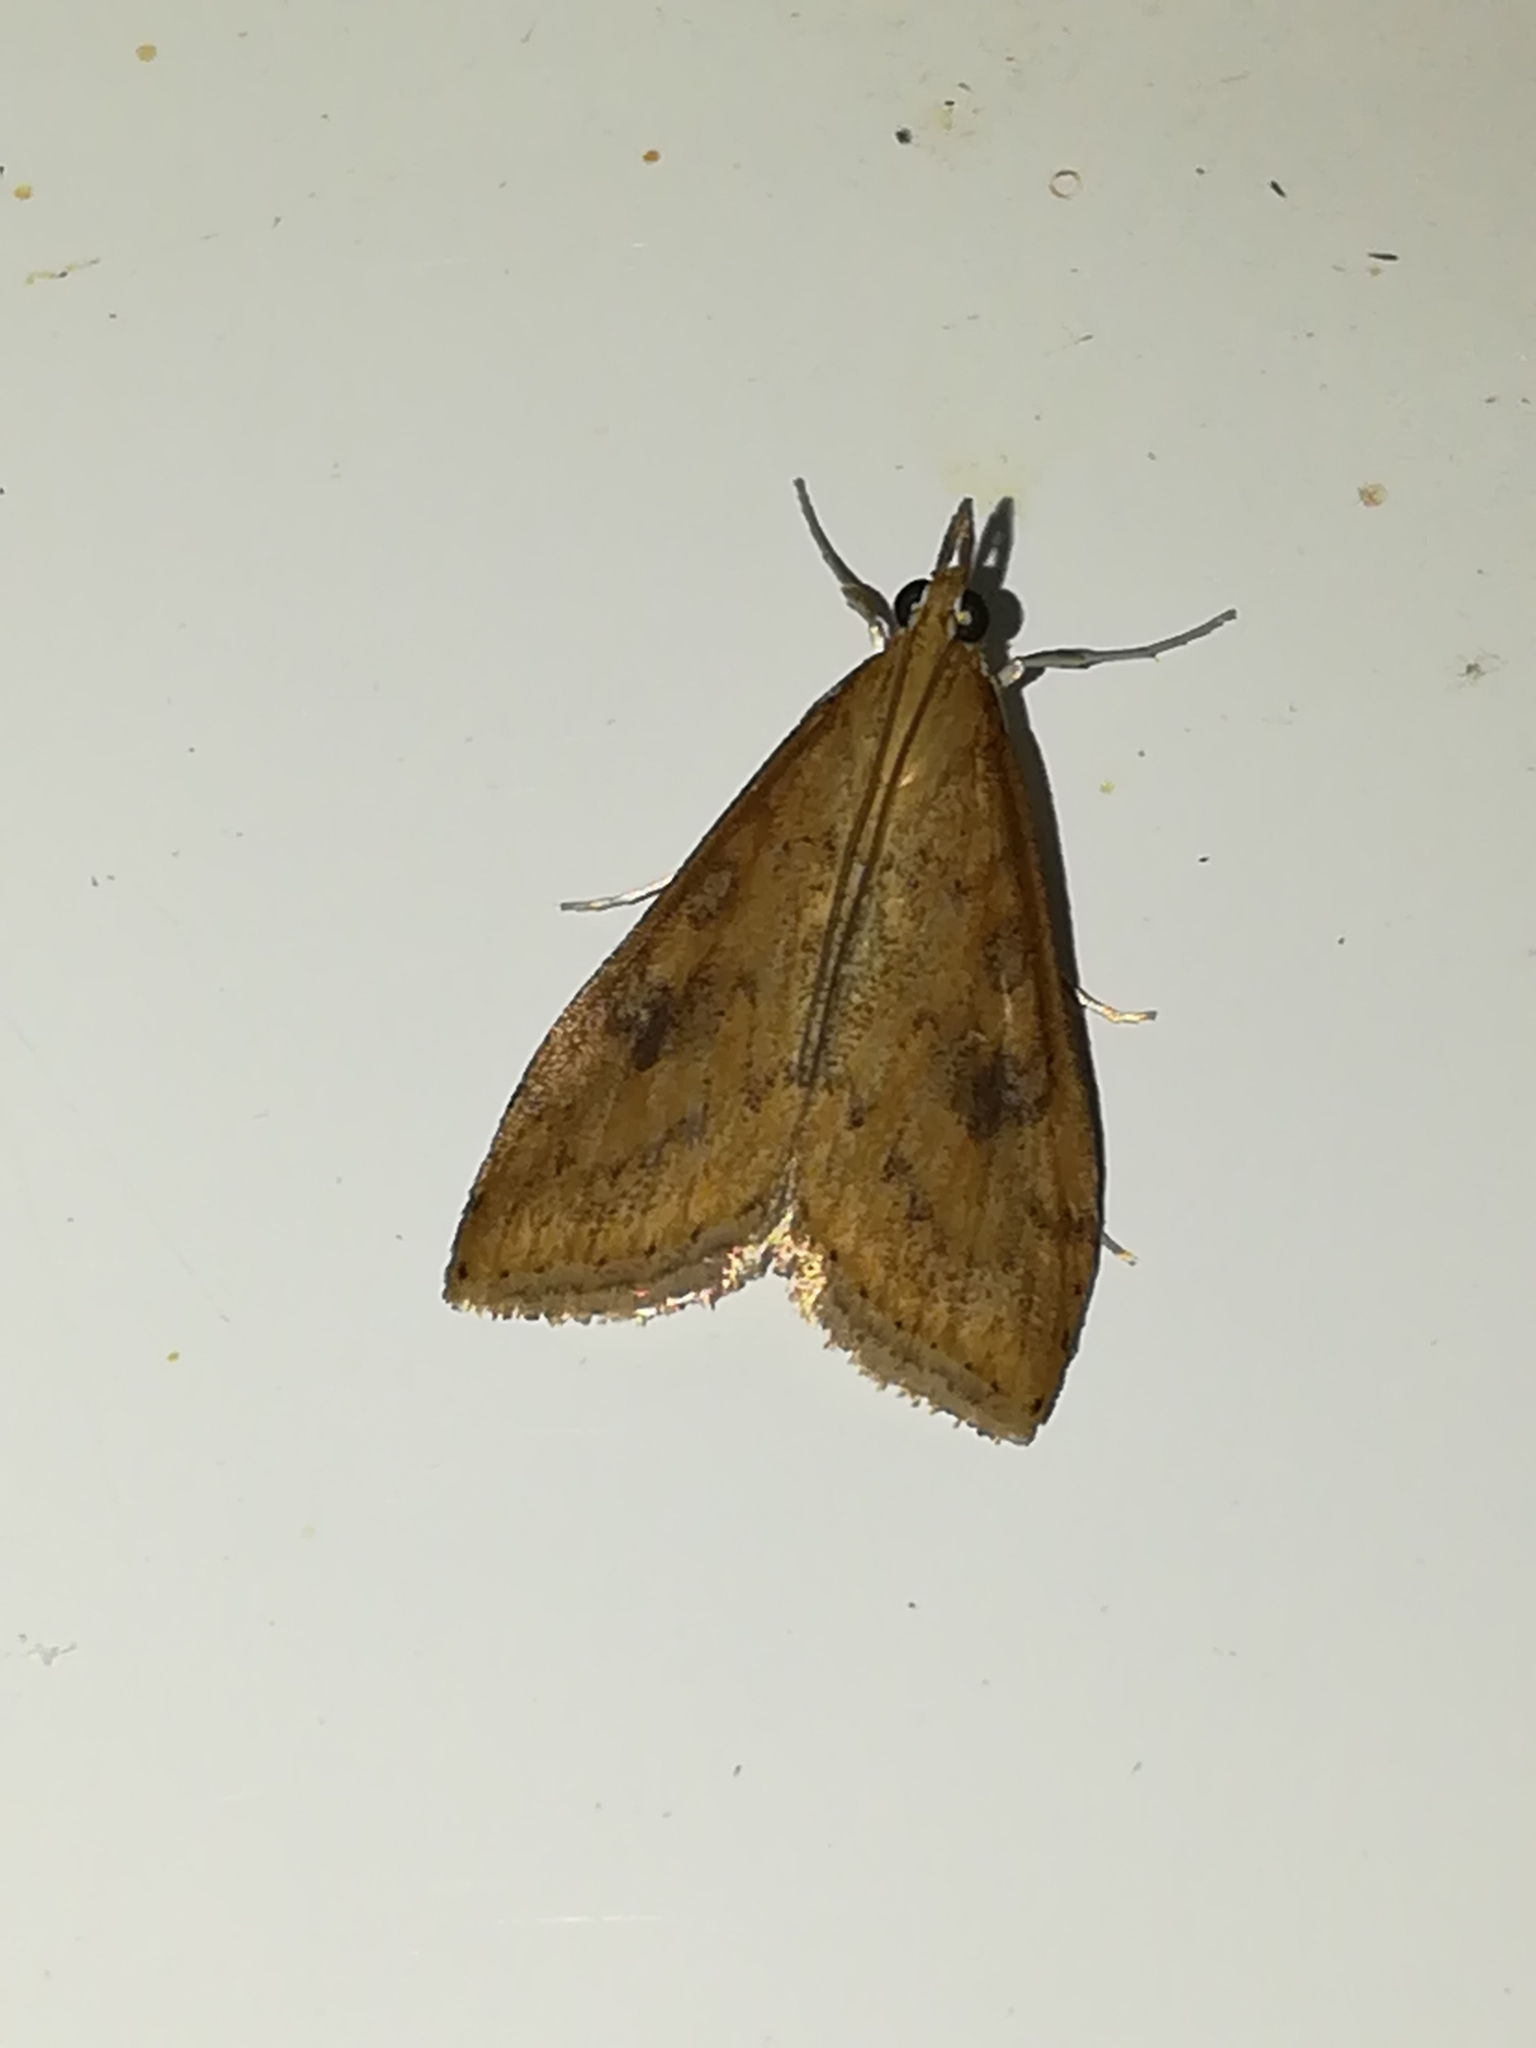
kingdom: Animalia
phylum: Arthropoda
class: Insecta
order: Lepidoptera
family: Crambidae
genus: Udea
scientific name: Udea ferrugalis
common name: Rusty dot
